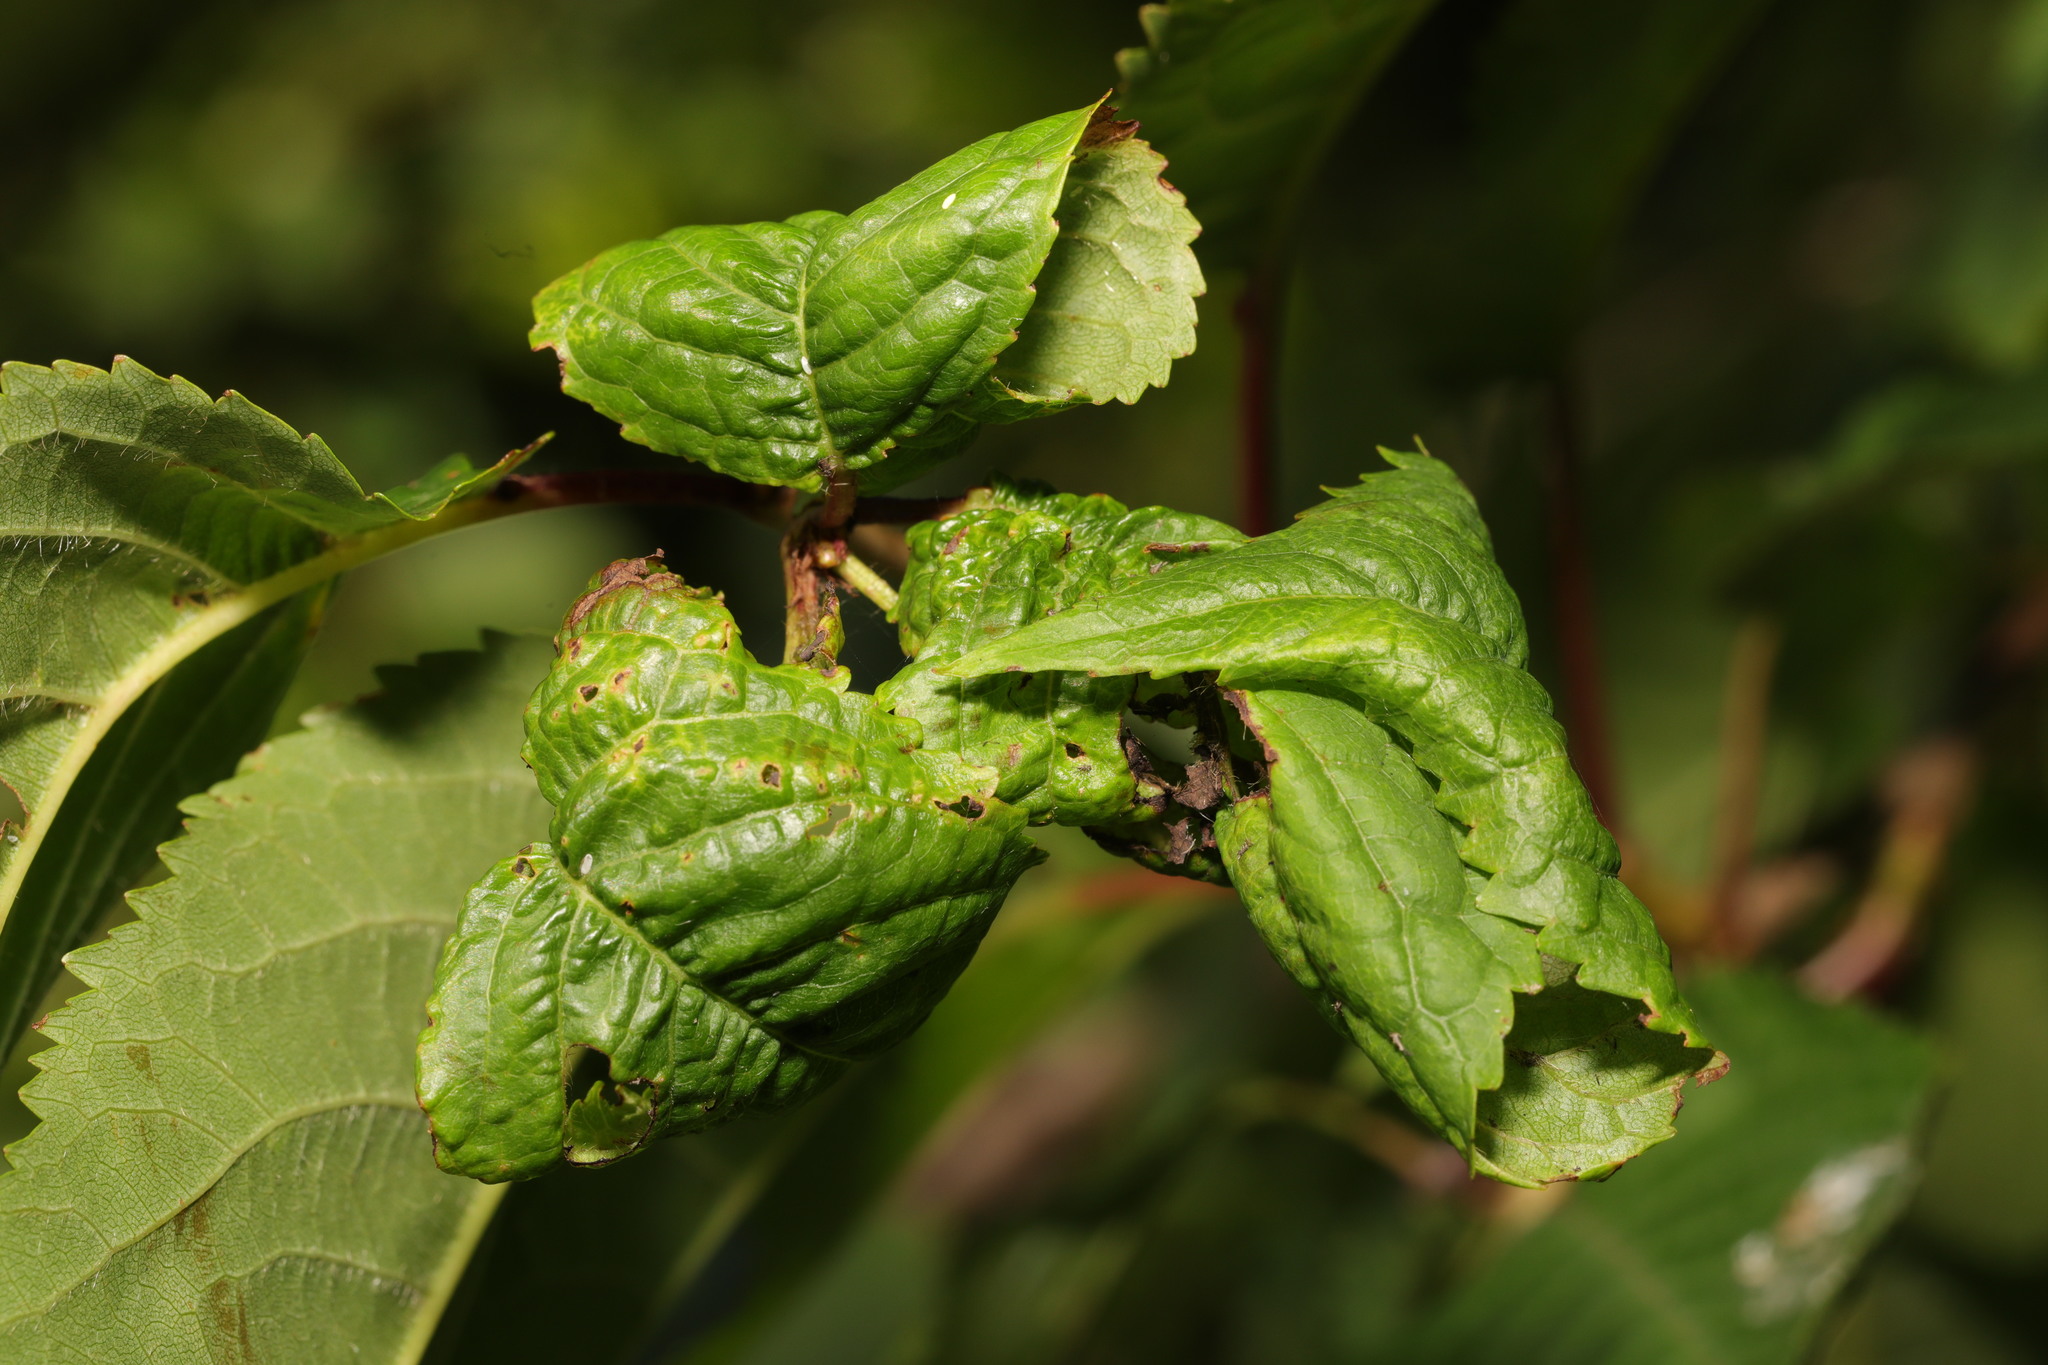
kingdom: Animalia
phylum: Arthropoda
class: Insecta
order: Hemiptera
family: Aphididae
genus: Myzus
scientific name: Myzus cerasi
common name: Black cherry aphid
